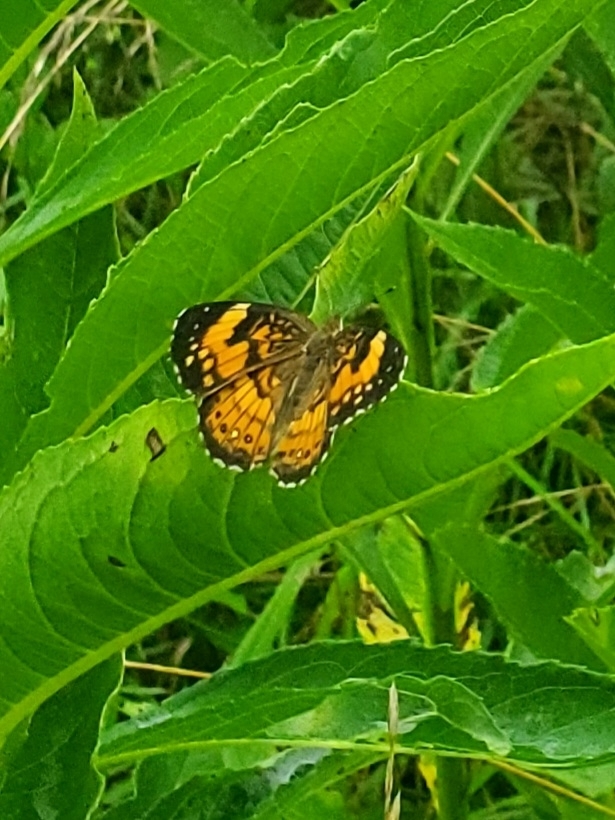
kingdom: Animalia
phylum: Arthropoda
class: Insecta
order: Lepidoptera
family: Nymphalidae
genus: Chlosyne
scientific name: Chlosyne nycteis
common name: Silvery checkerspot
